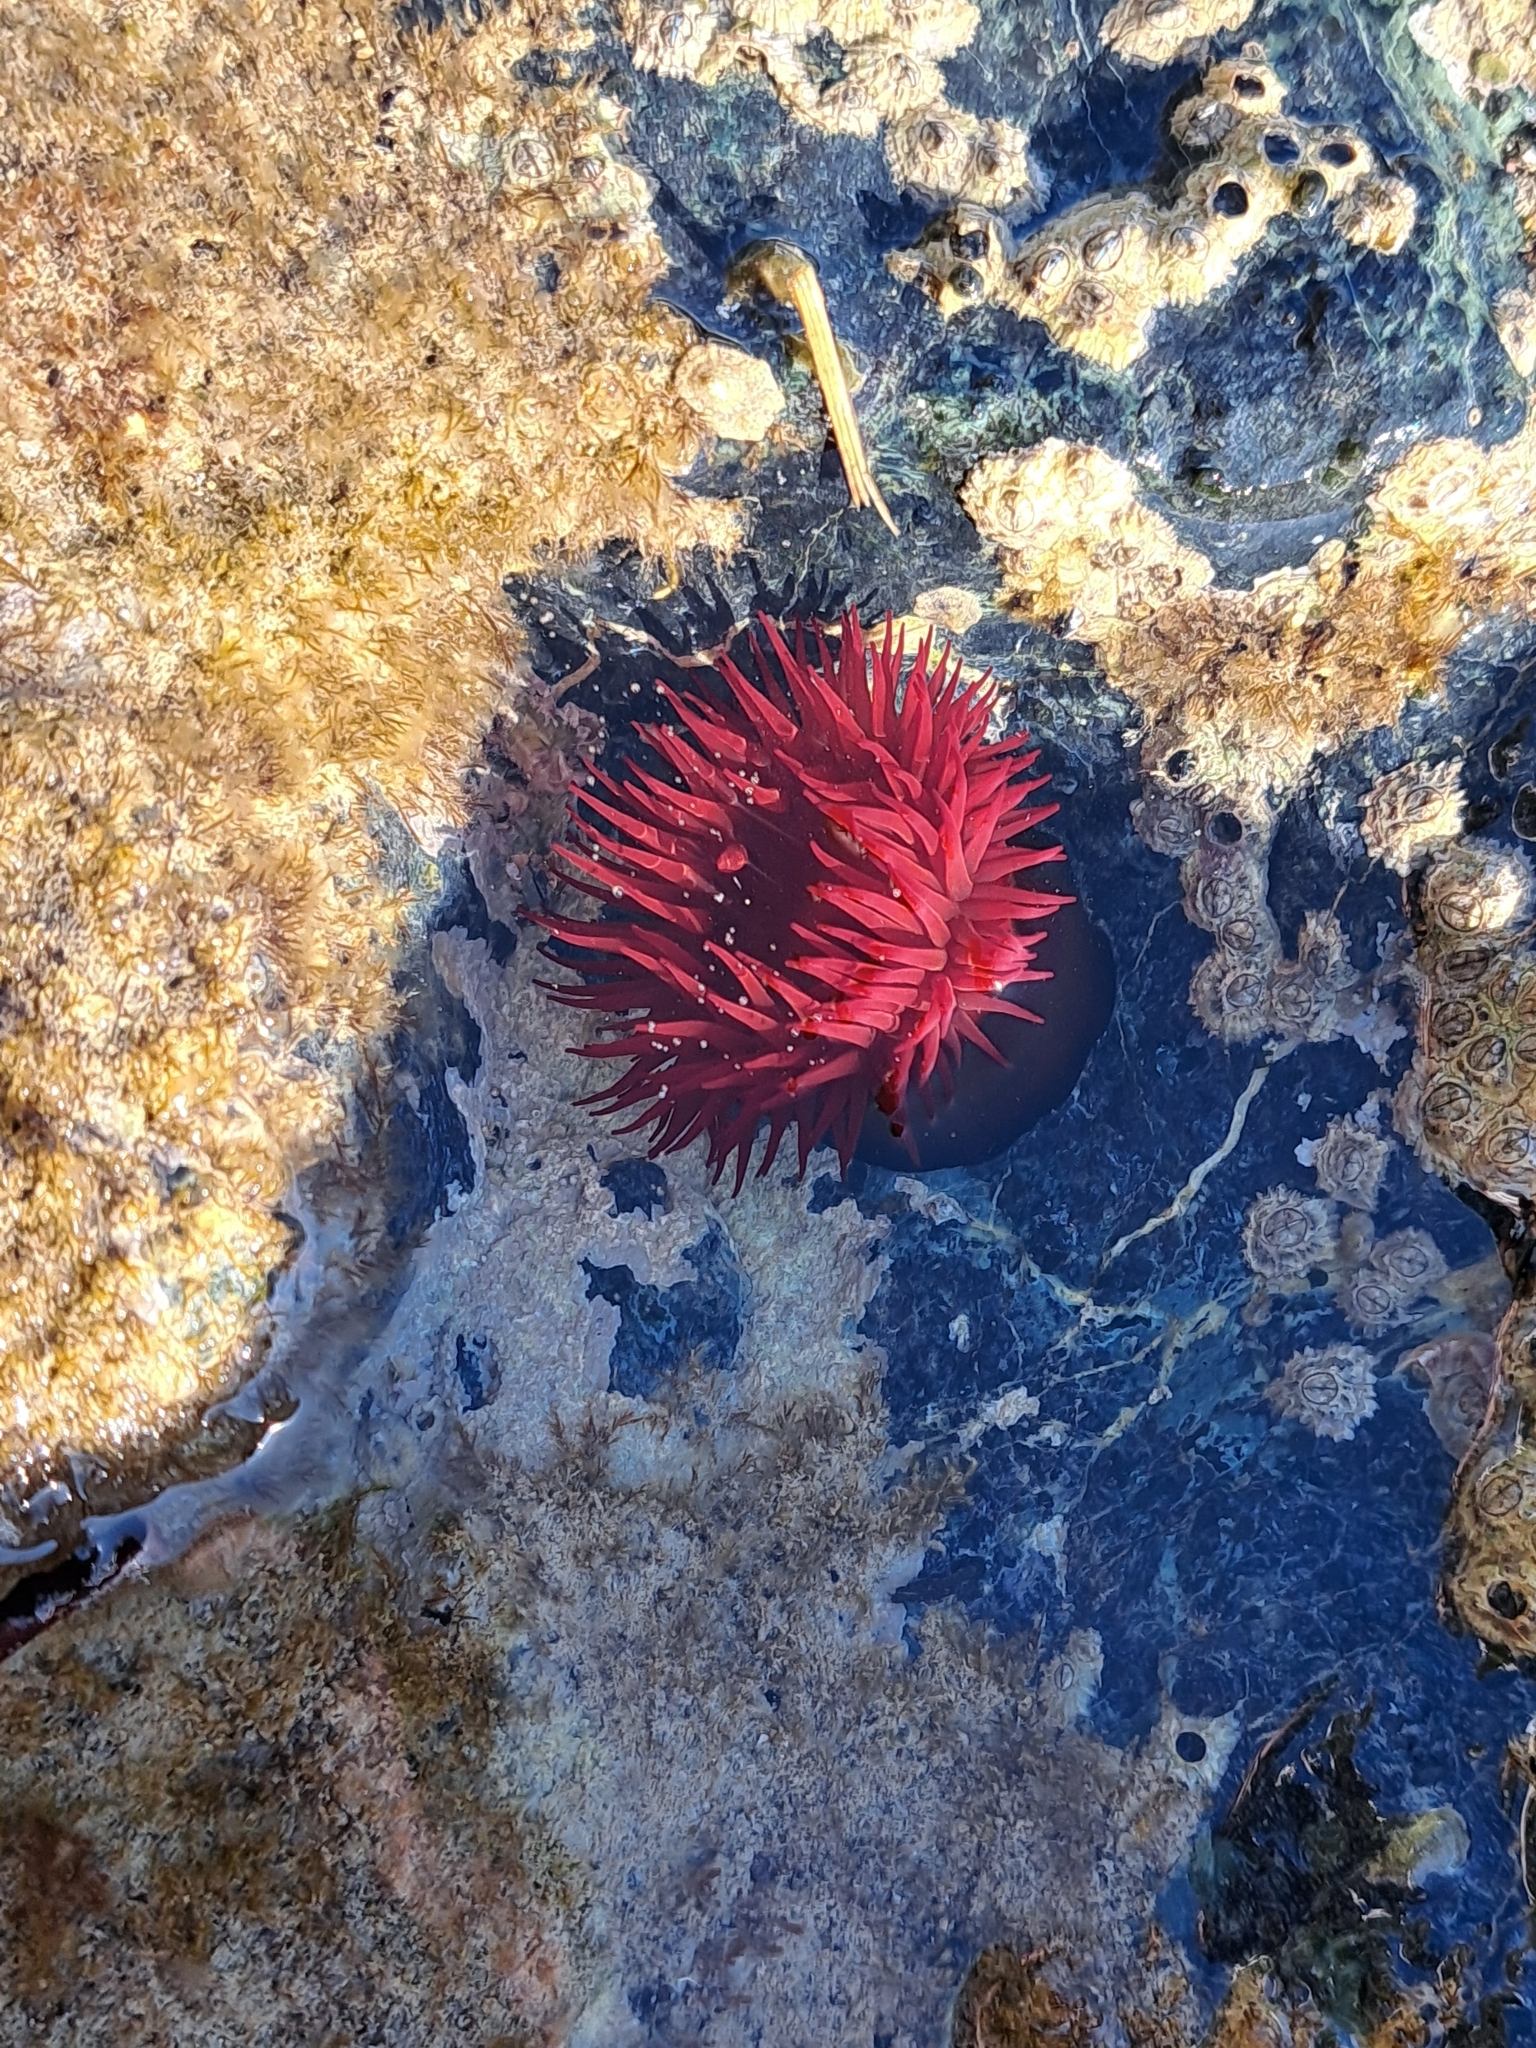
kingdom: Animalia
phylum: Cnidaria
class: Anthozoa
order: Actiniaria
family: Actiniidae
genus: Actinia
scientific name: Actinia mediterranea
